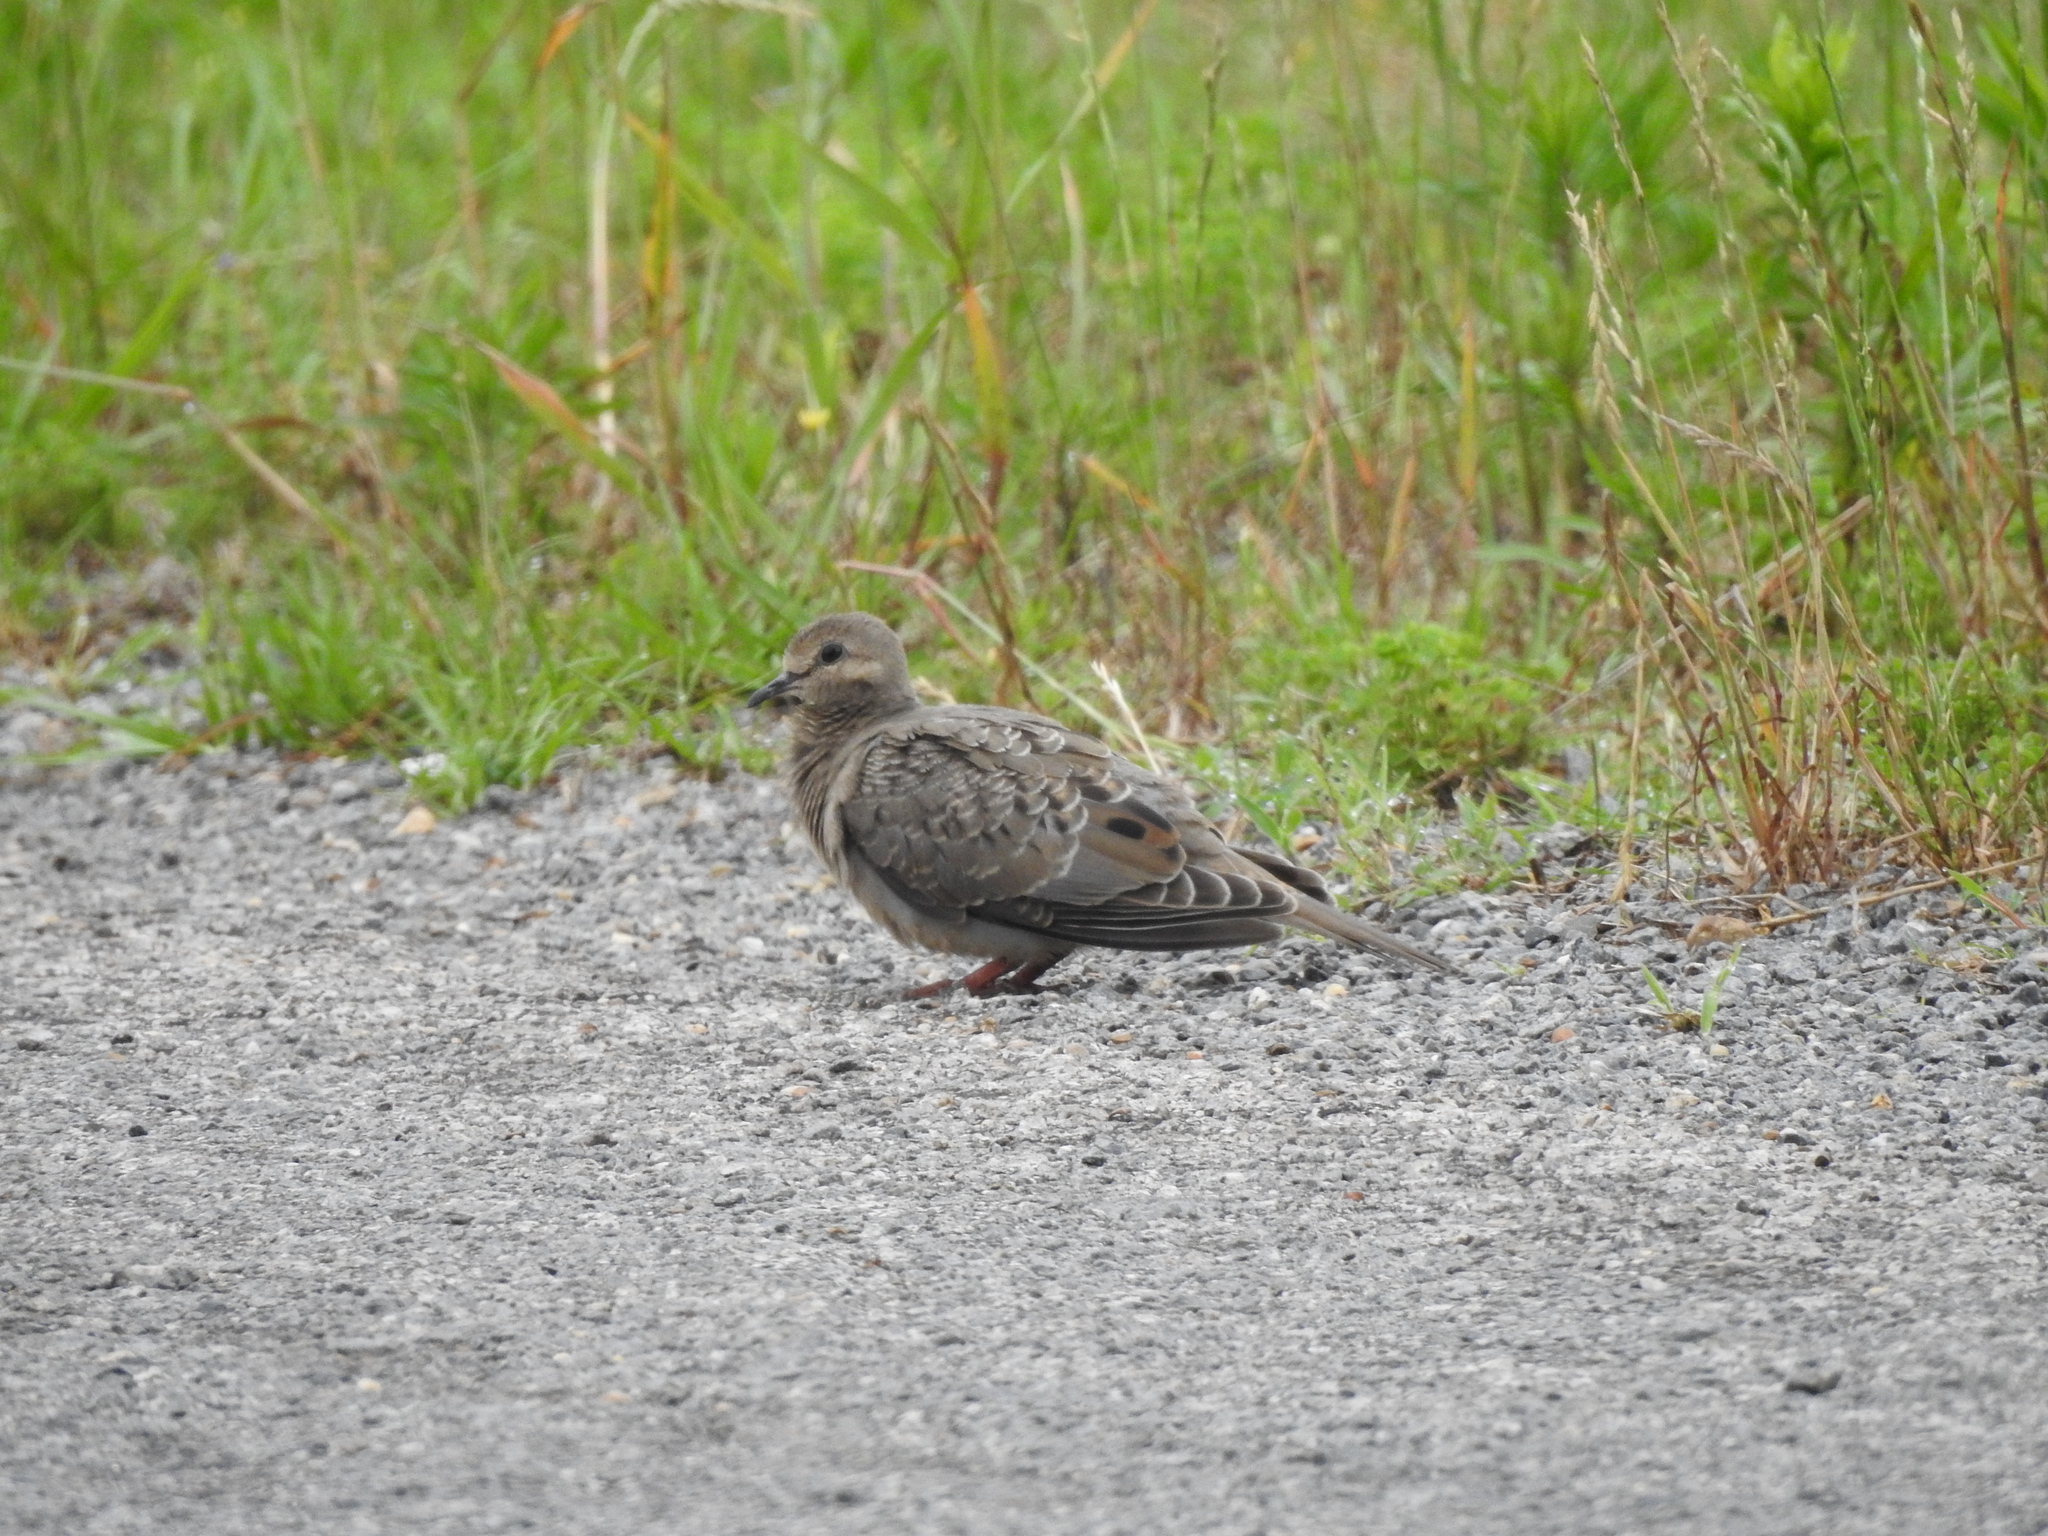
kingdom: Animalia
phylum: Chordata
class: Aves
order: Columbiformes
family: Columbidae
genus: Zenaida
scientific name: Zenaida macroura
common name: Mourning dove
